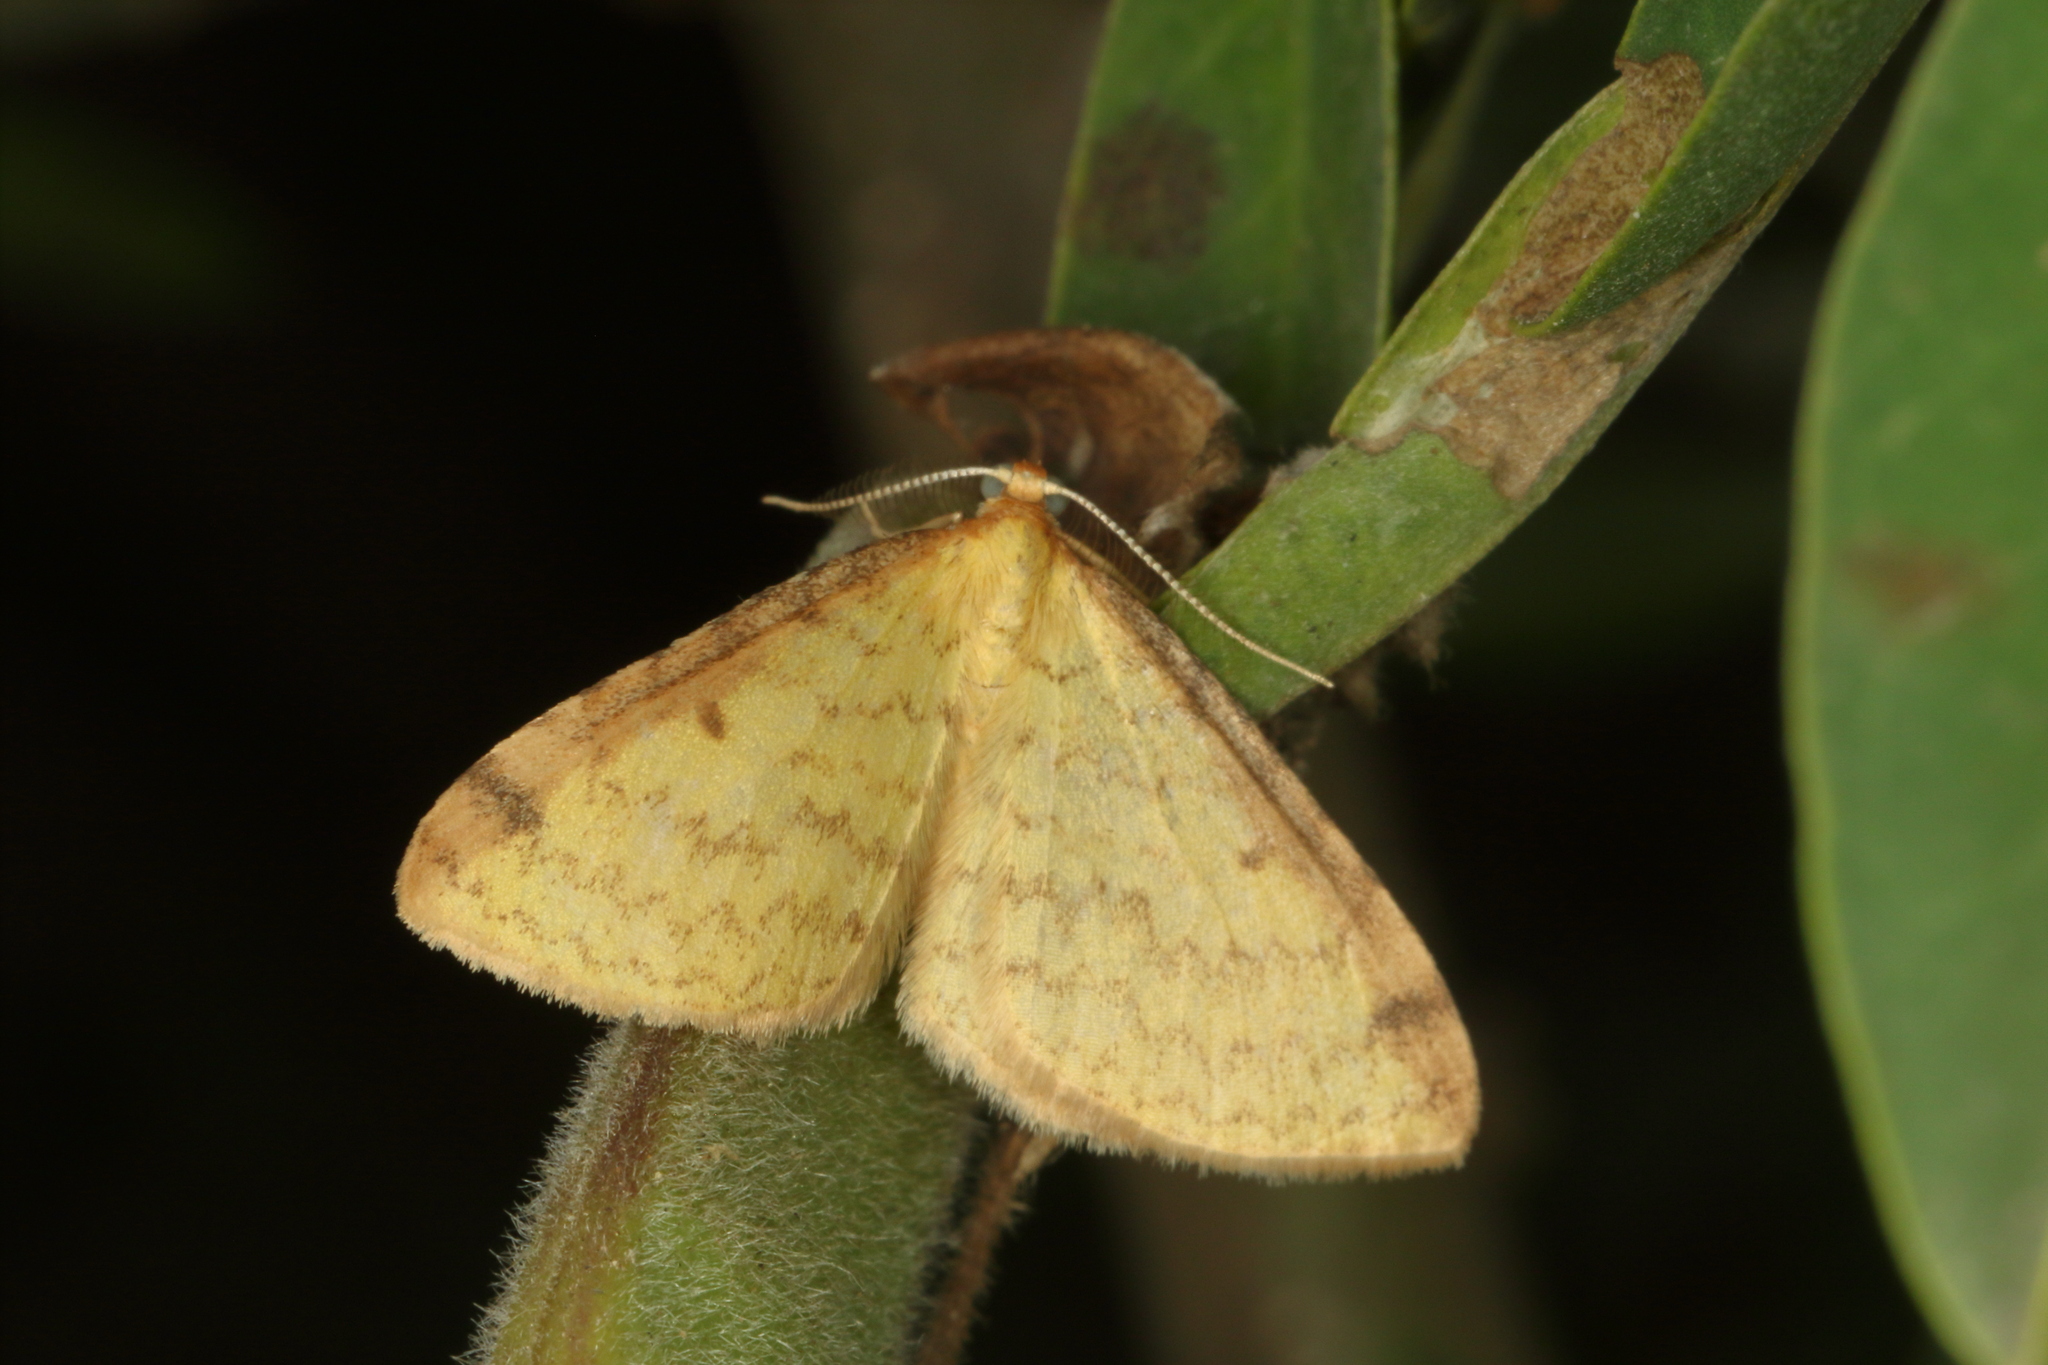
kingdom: Animalia
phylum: Arthropoda
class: Insecta
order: Lepidoptera
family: Geometridae
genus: Epiphryne
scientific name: Epiphryne undosata
